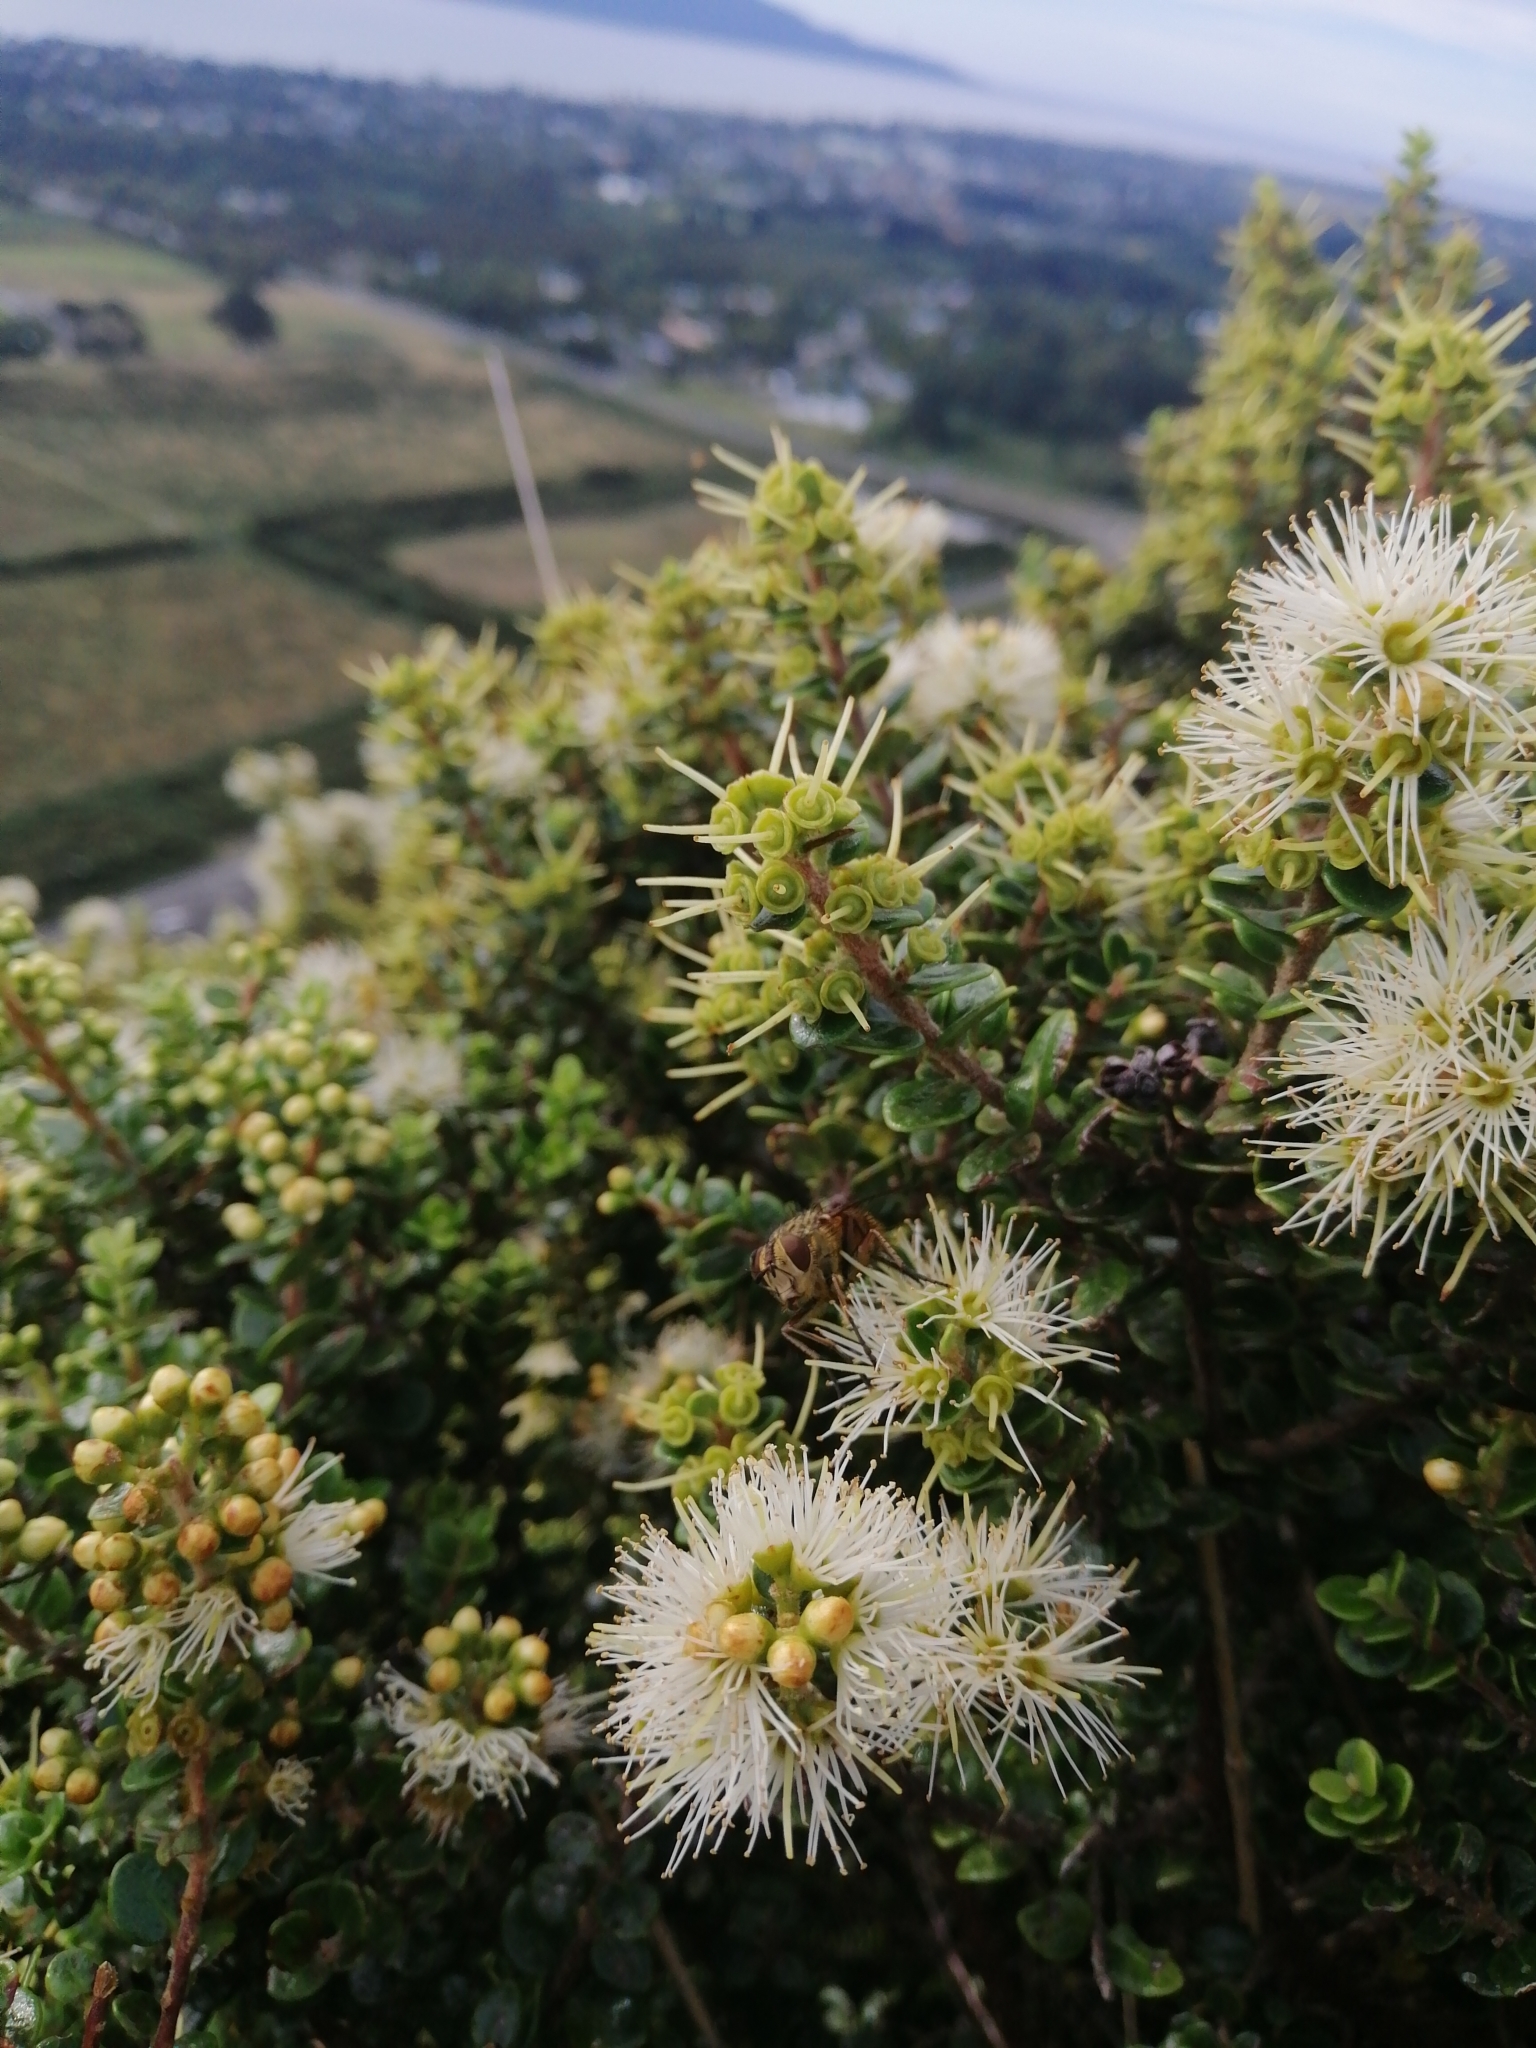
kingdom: Plantae
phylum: Tracheophyta
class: Magnoliopsida
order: Myrtales
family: Myrtaceae
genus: Metrosideros
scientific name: Metrosideros perforata
